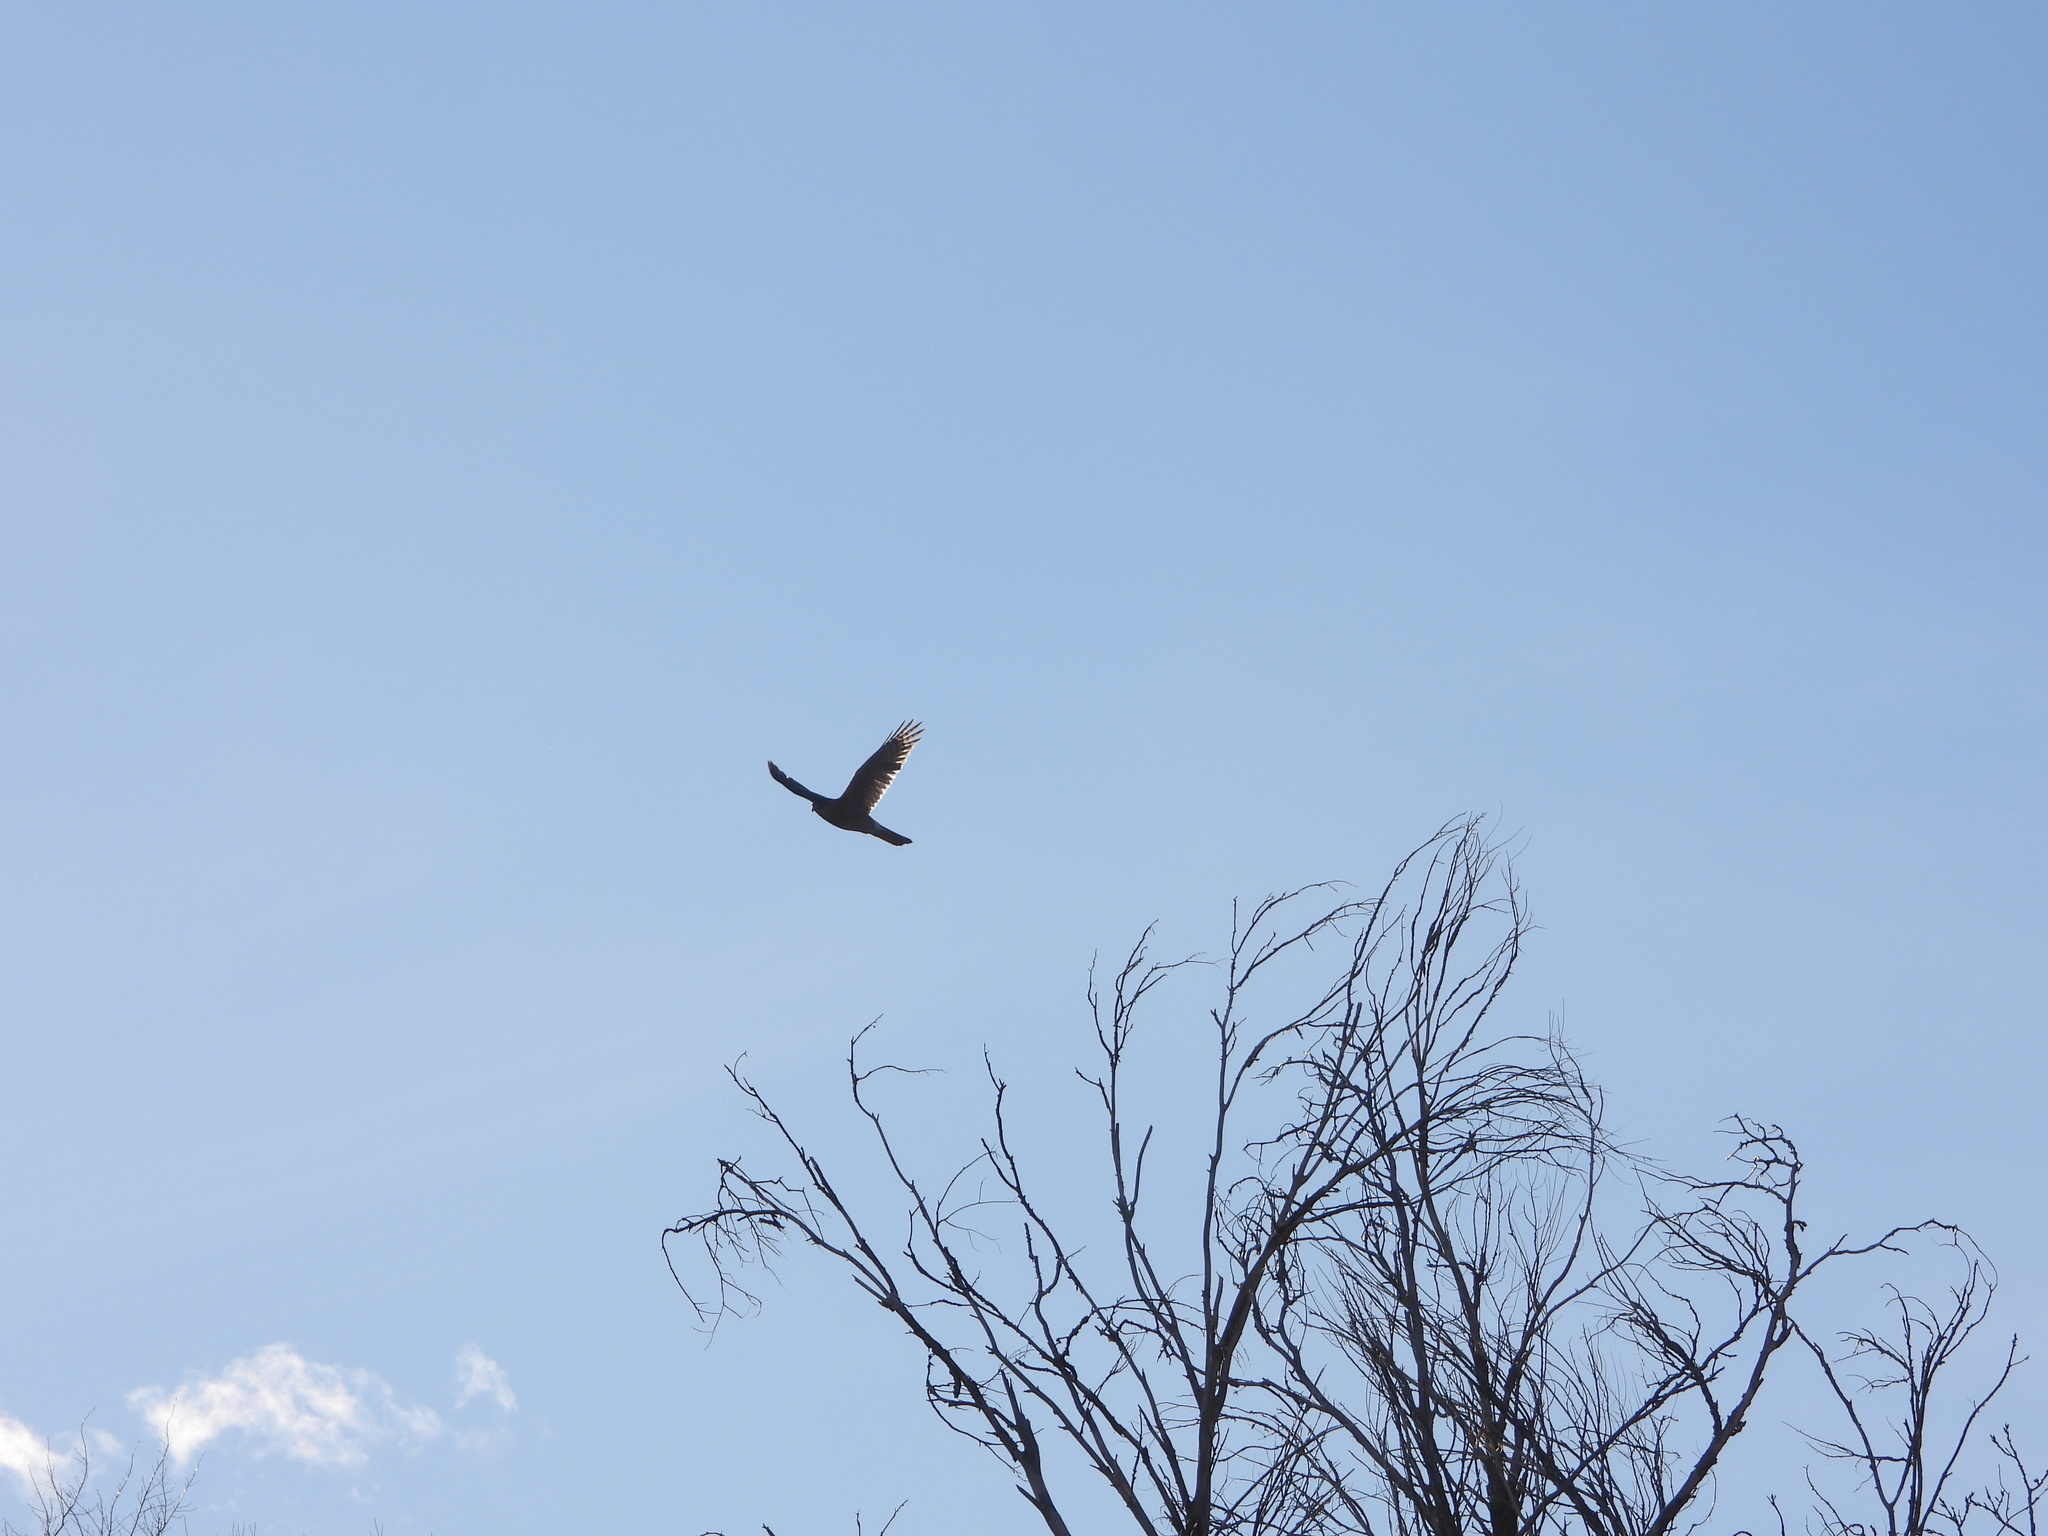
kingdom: Animalia
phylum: Chordata
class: Aves
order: Accipitriformes
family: Accipitridae
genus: Accipiter
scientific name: Accipiter striatus
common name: Sharp-shinned hawk
